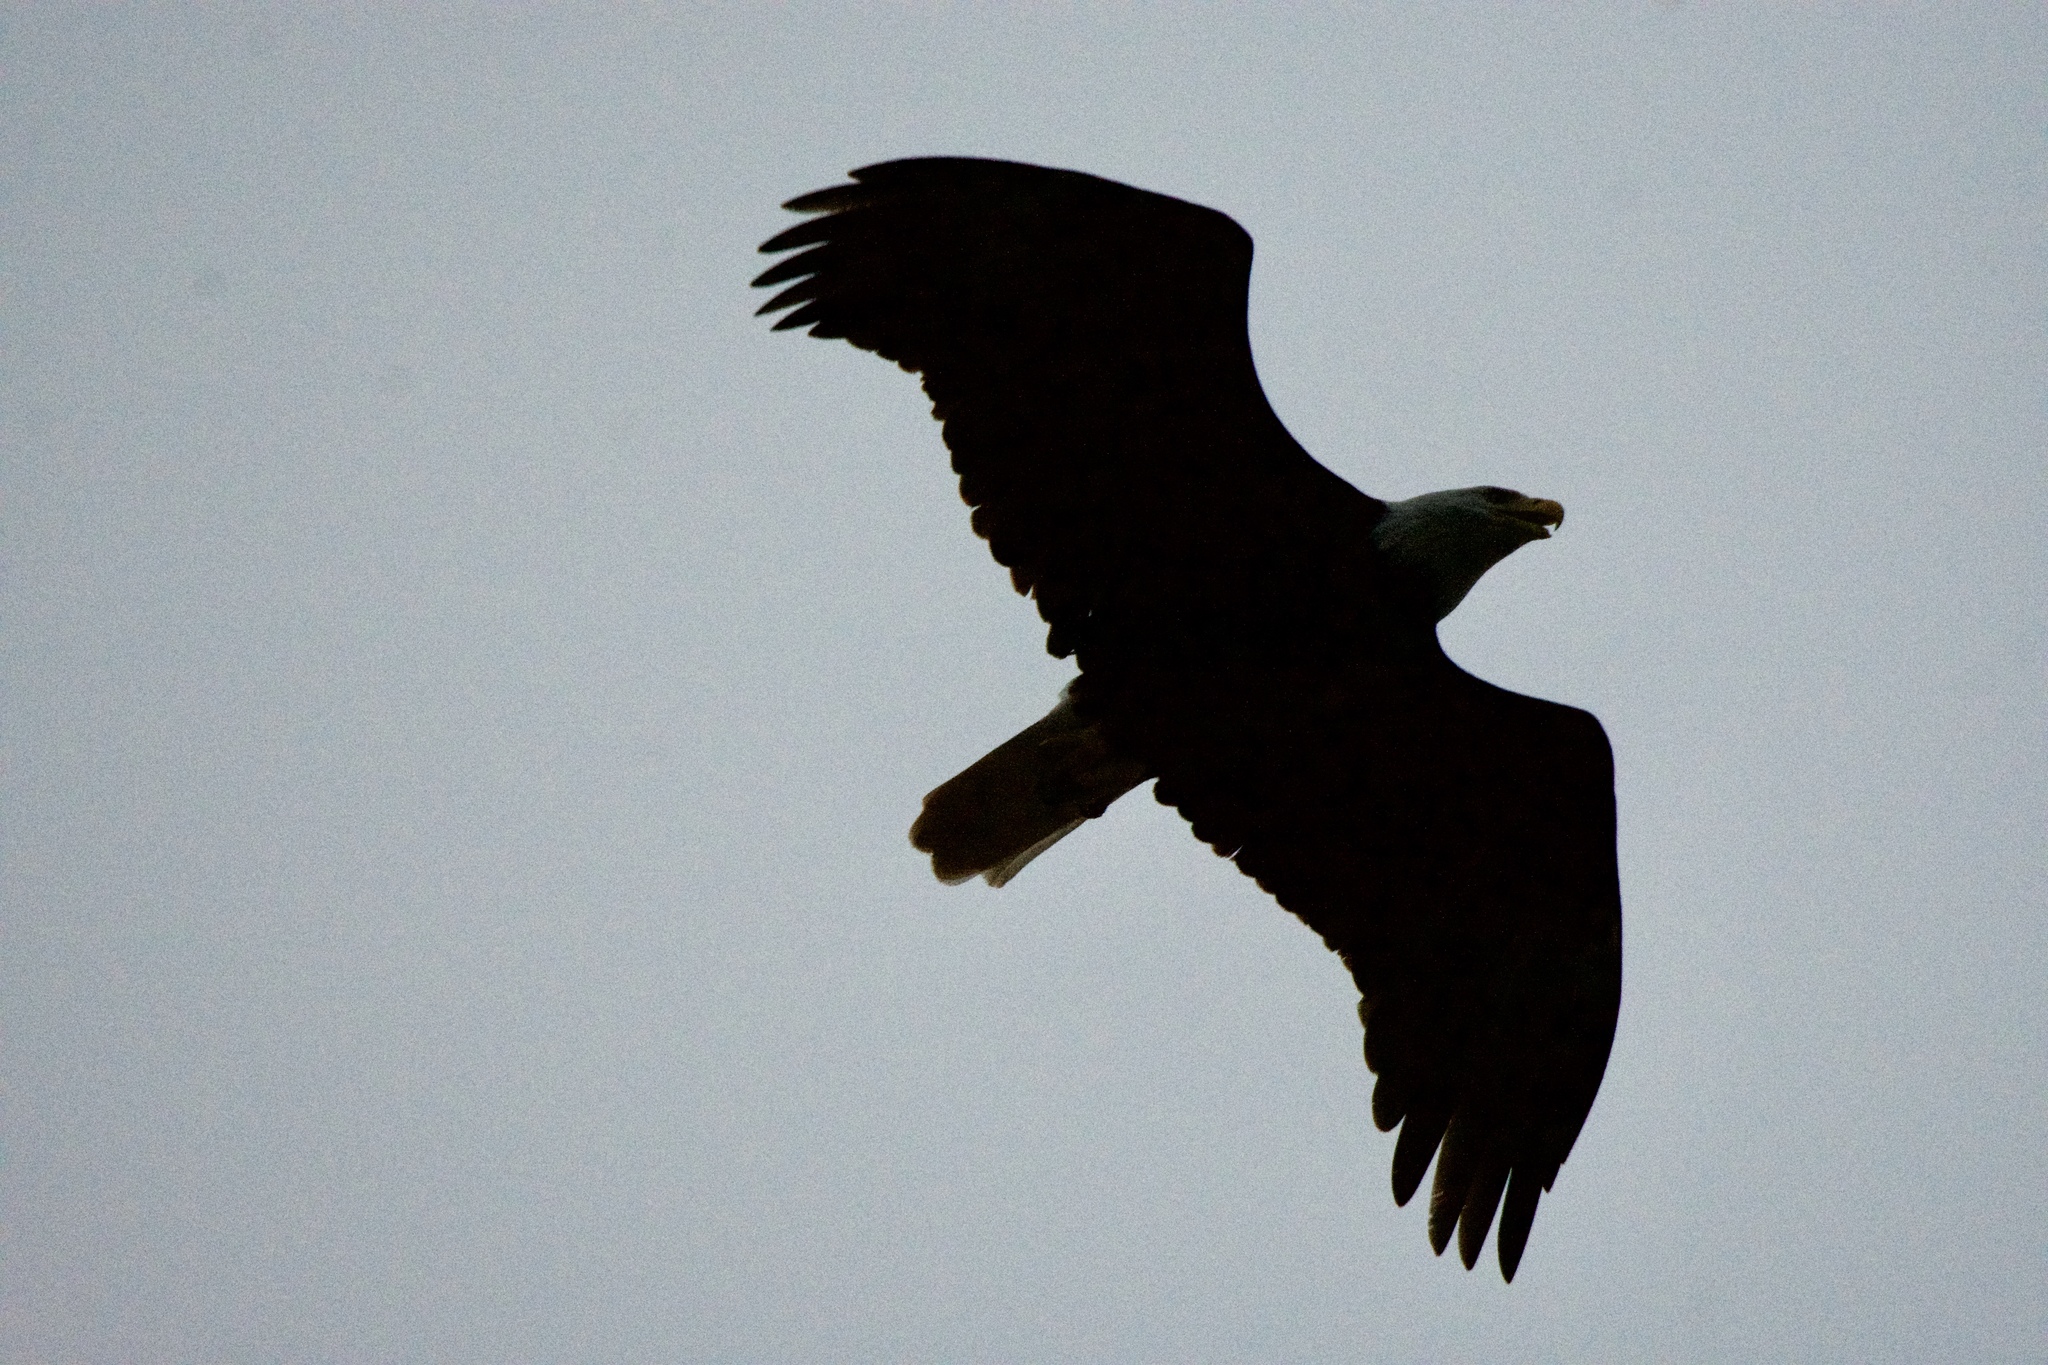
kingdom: Animalia
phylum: Chordata
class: Aves
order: Accipitriformes
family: Accipitridae
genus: Haliaeetus
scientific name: Haliaeetus leucocephalus
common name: Bald eagle
